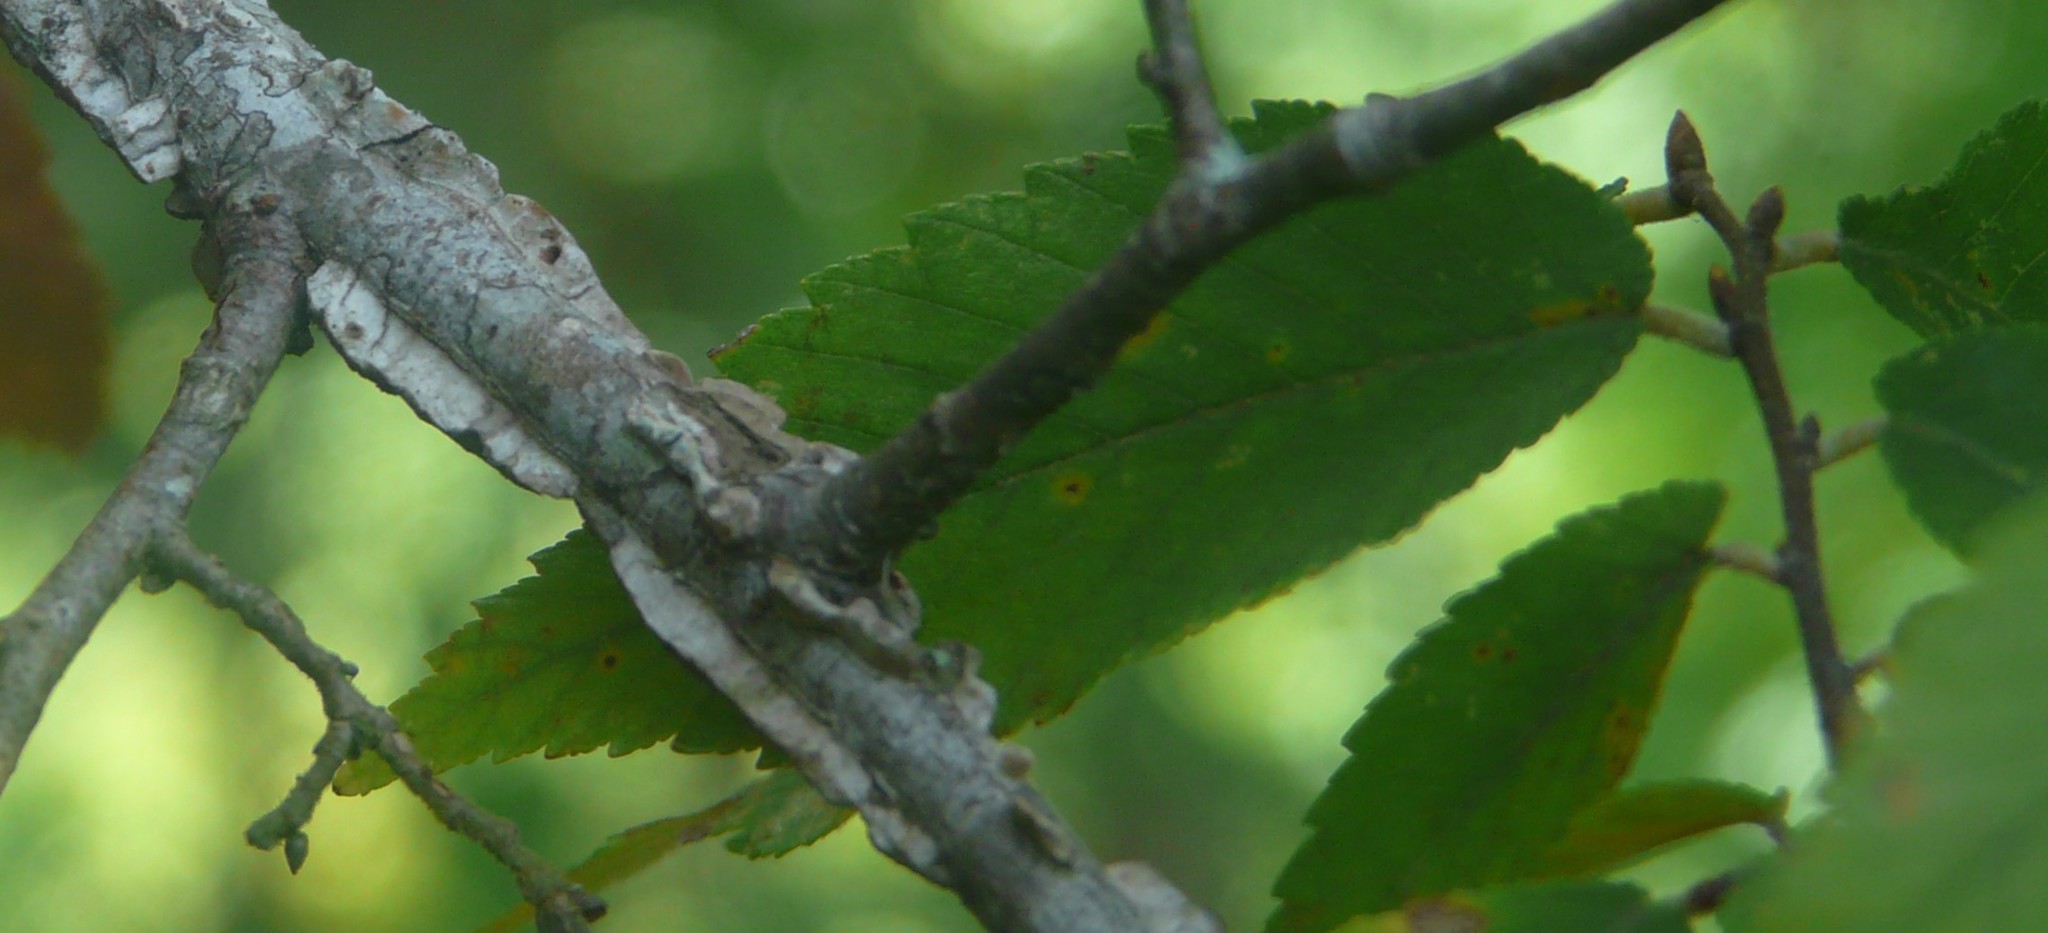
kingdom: Plantae
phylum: Tracheophyta
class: Magnoliopsida
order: Rosales
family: Ulmaceae
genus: Ulmus
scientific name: Ulmus alata
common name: Winged elm
